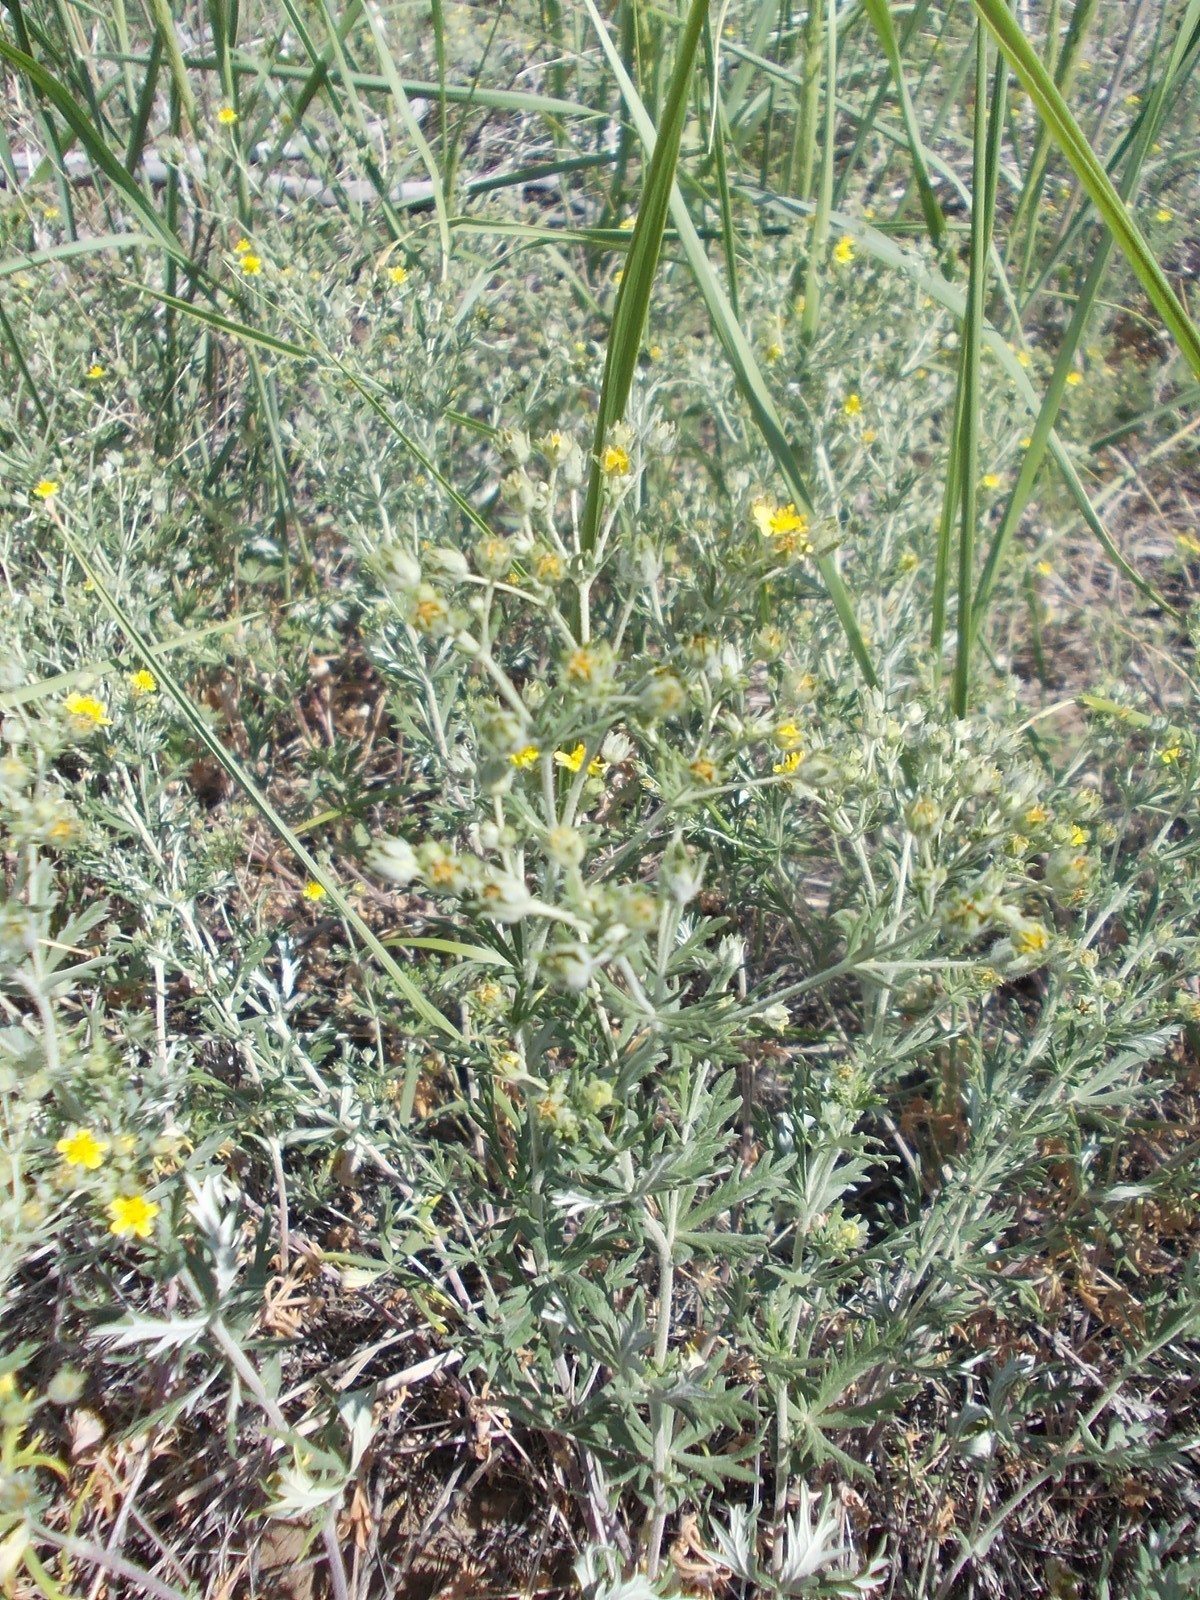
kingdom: Plantae
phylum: Tracheophyta
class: Magnoliopsida
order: Rosales
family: Rosaceae
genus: Potentilla
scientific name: Potentilla argentea
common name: Hoary cinquefoil
